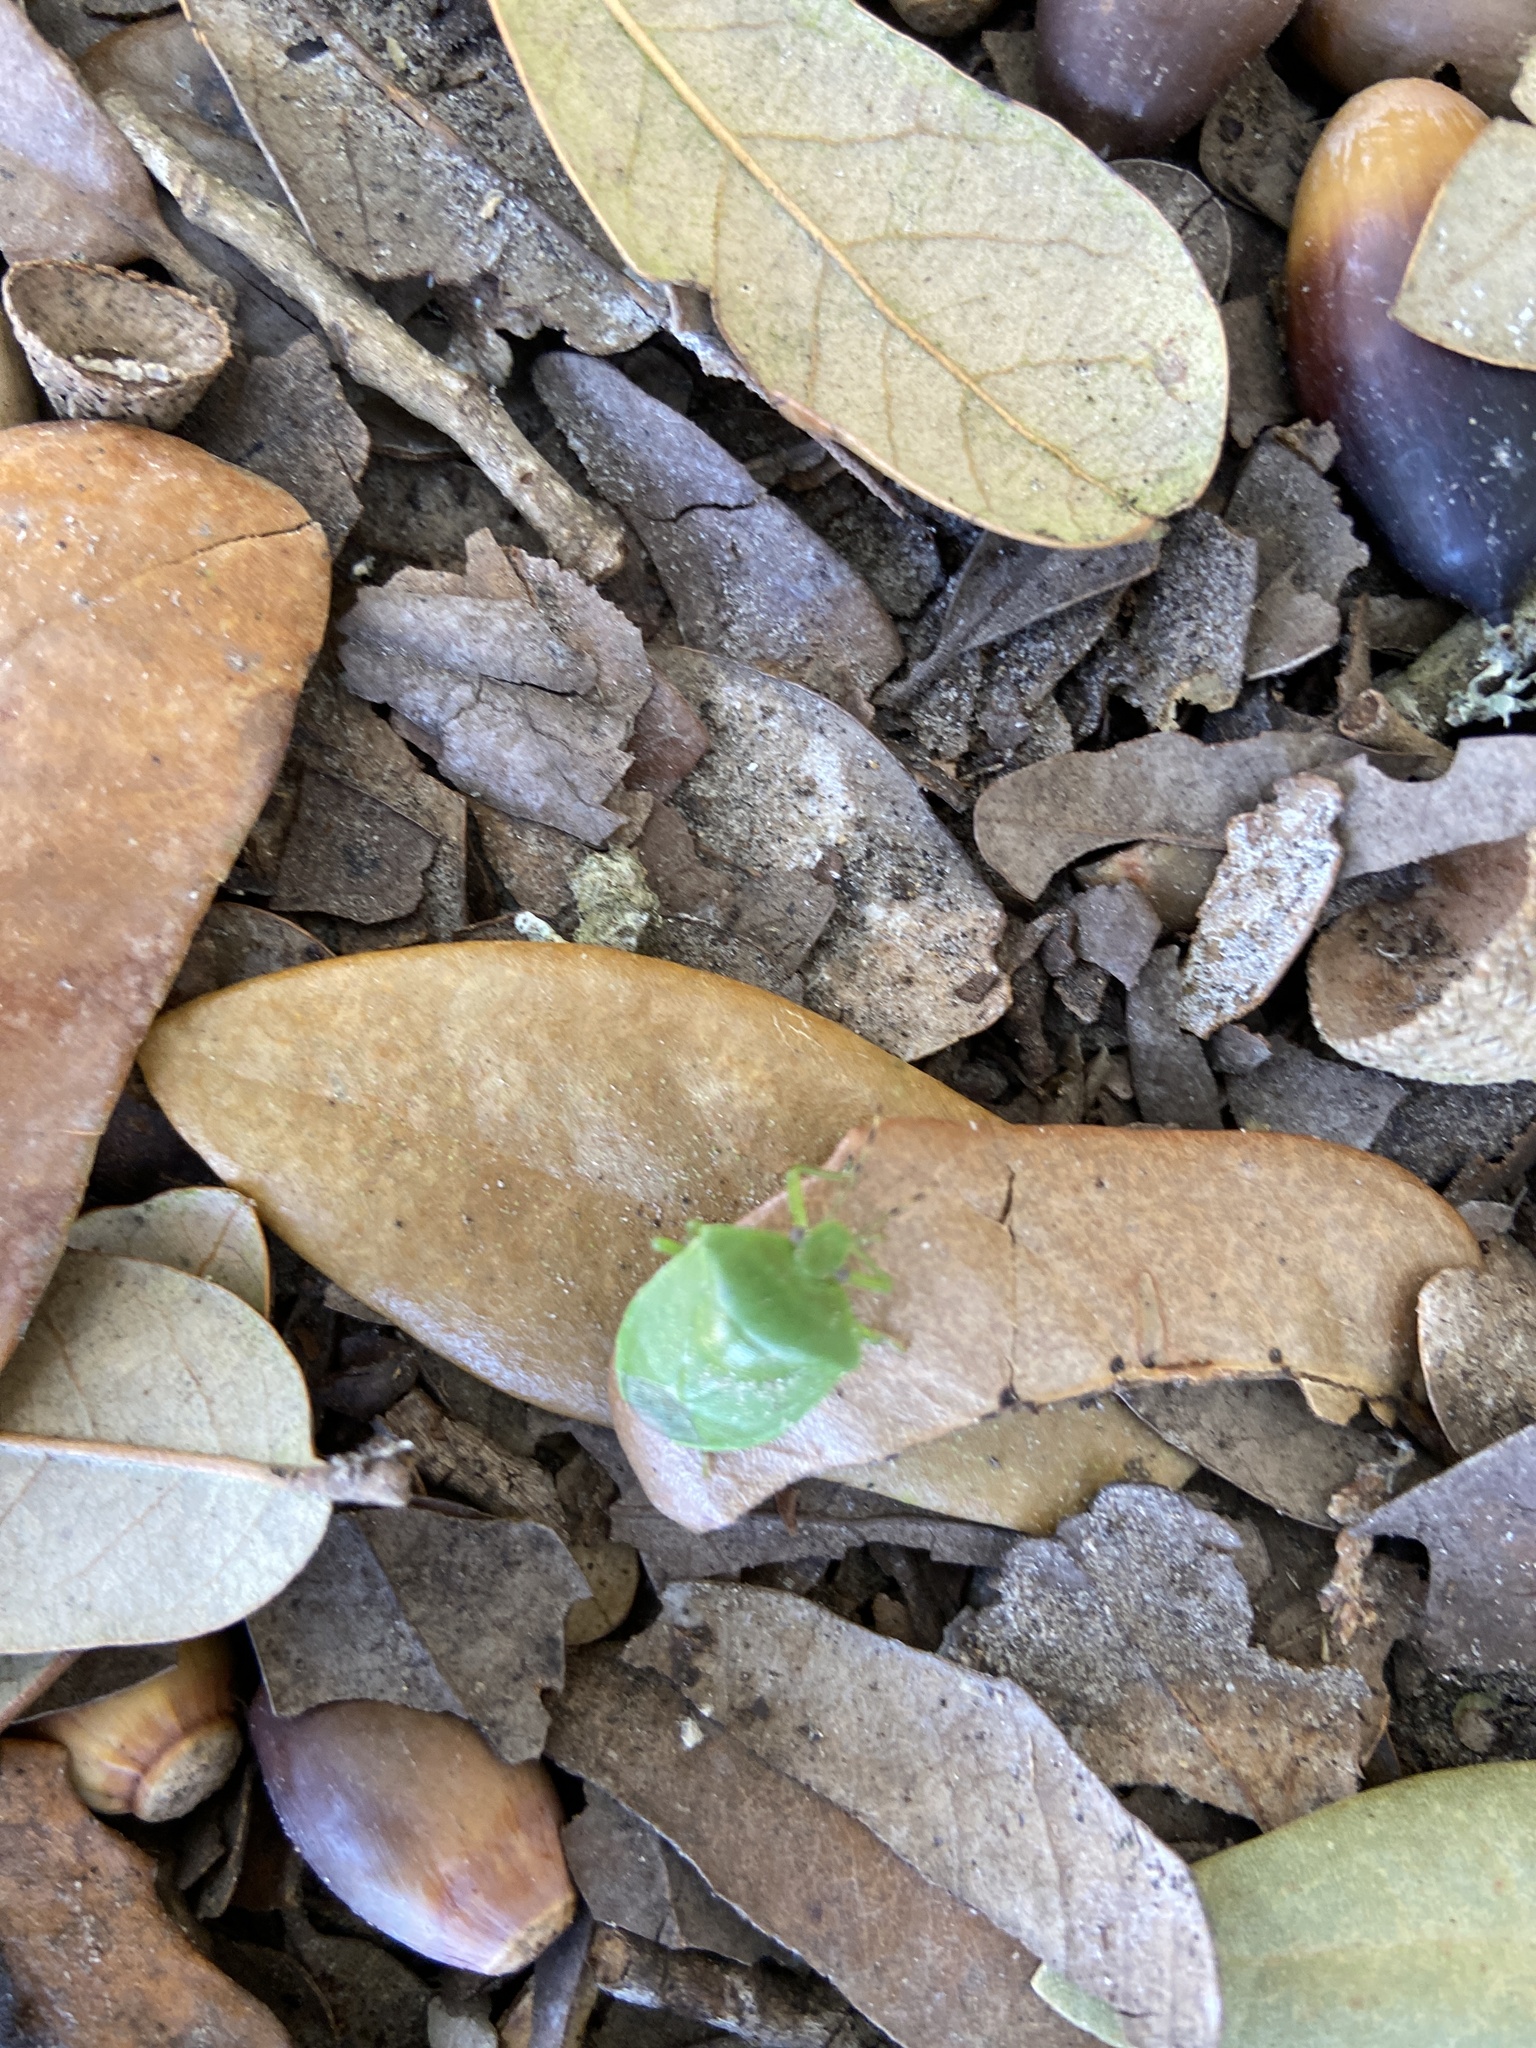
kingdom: Animalia
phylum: Arthropoda
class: Insecta
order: Hemiptera
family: Pentatomidae
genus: Chinavia
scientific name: Chinavia hilaris
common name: Green stink bug
